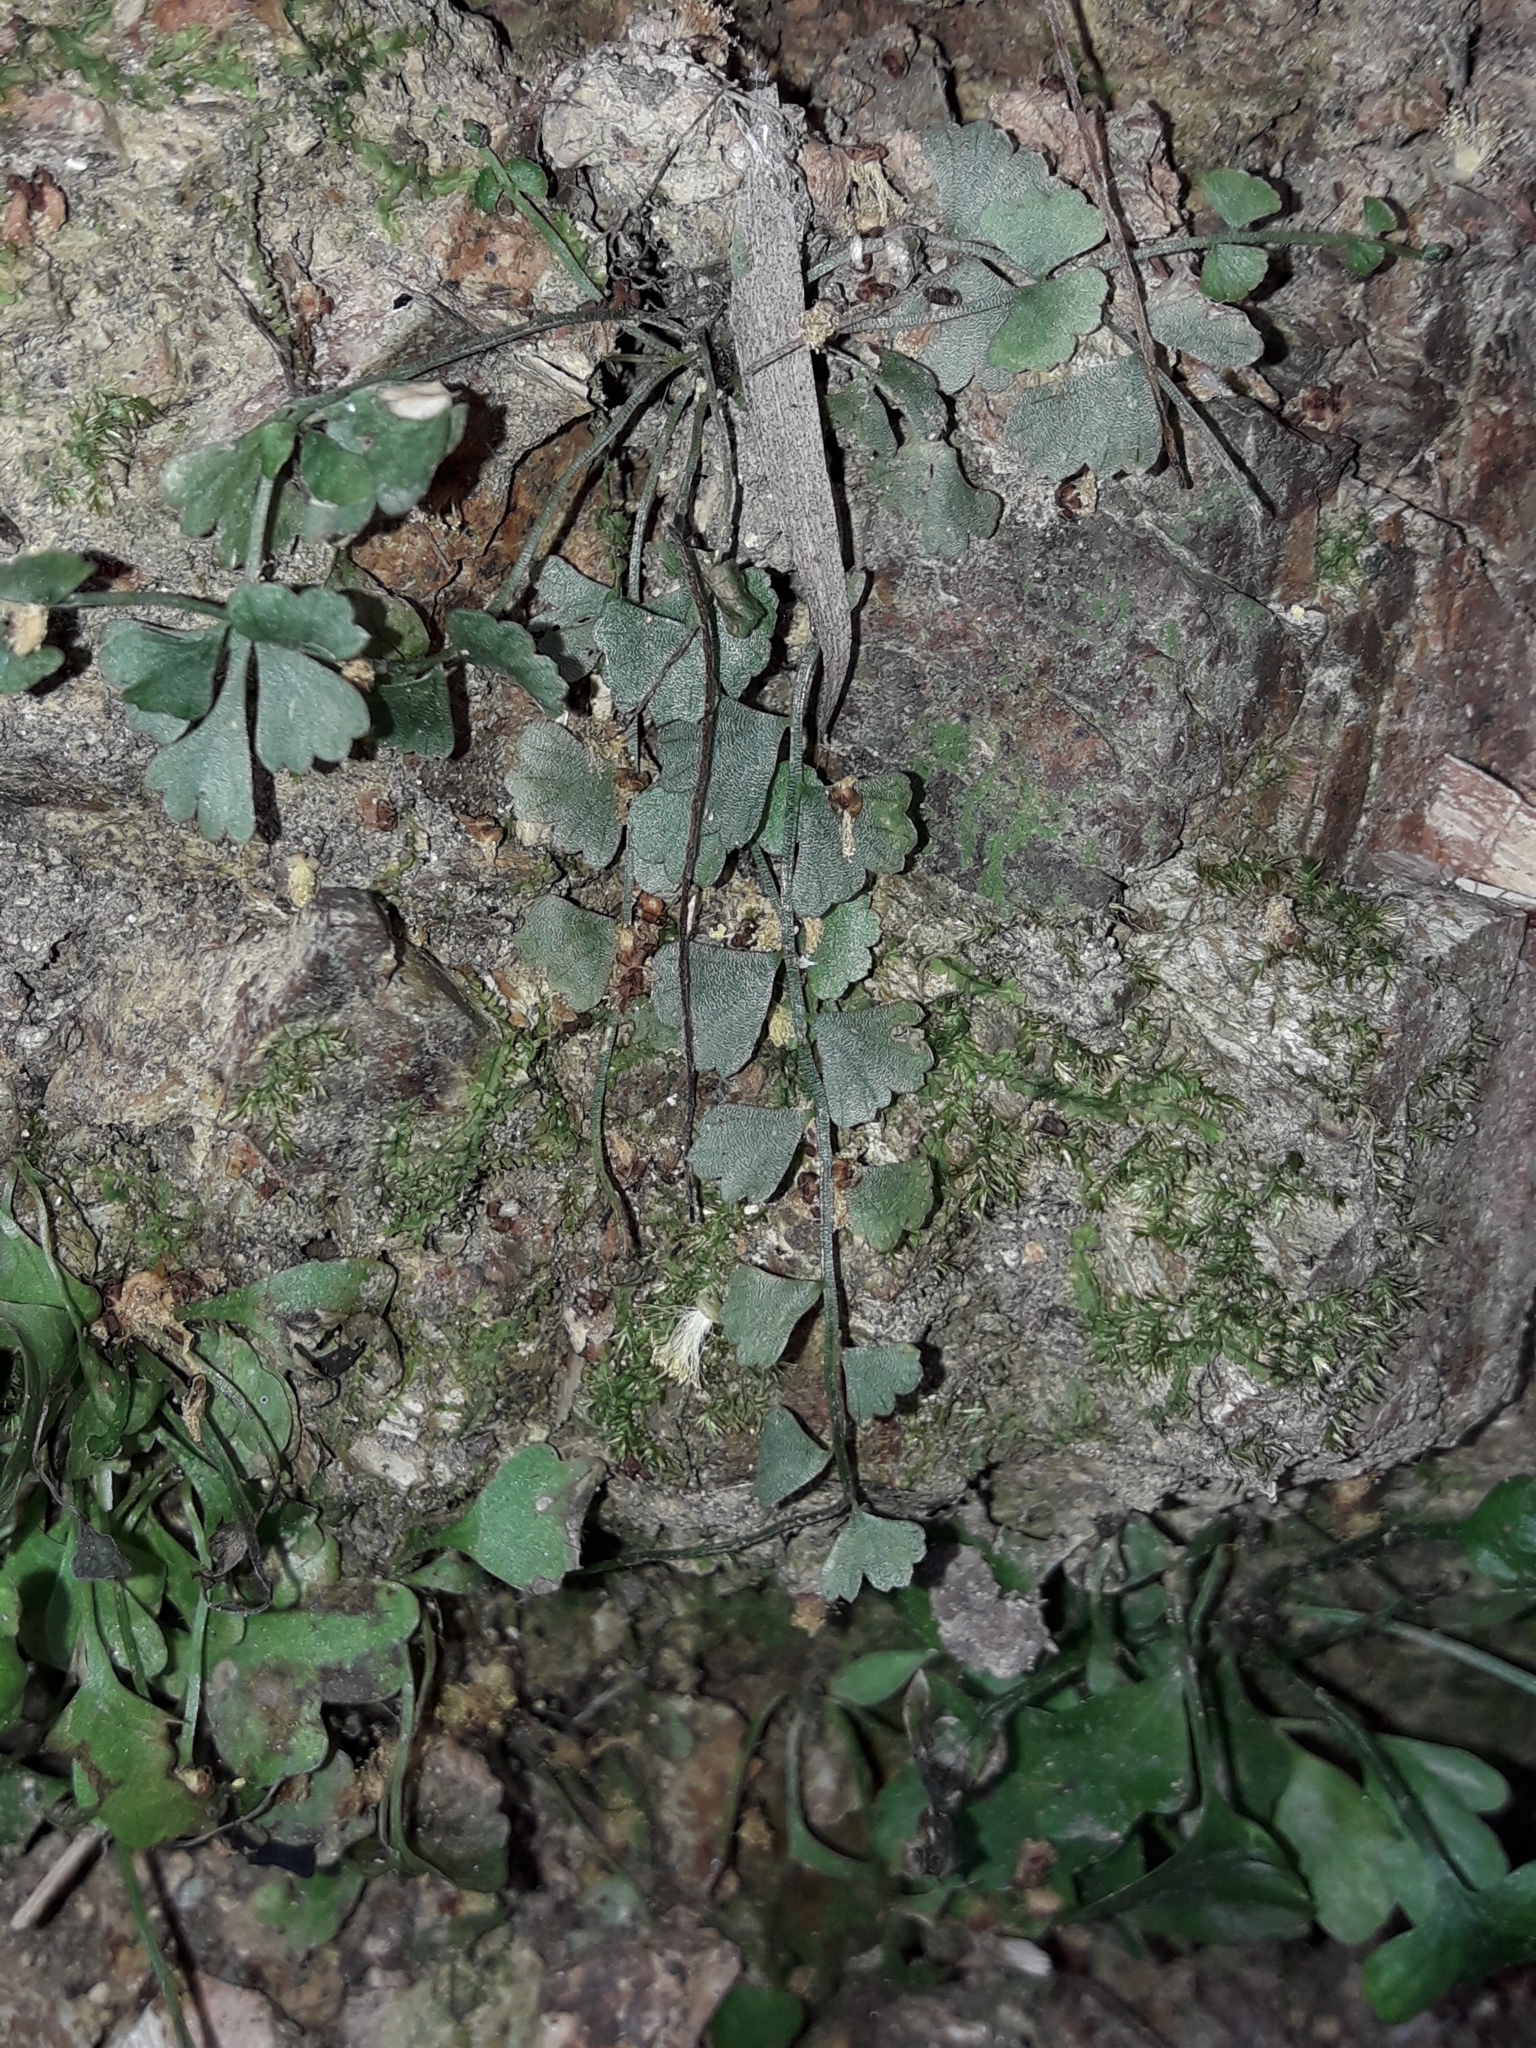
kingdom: Plantae
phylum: Tracheophyta
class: Polypodiopsida
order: Polypodiales
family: Aspleniaceae
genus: Asplenium
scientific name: Asplenium flabellifolium
